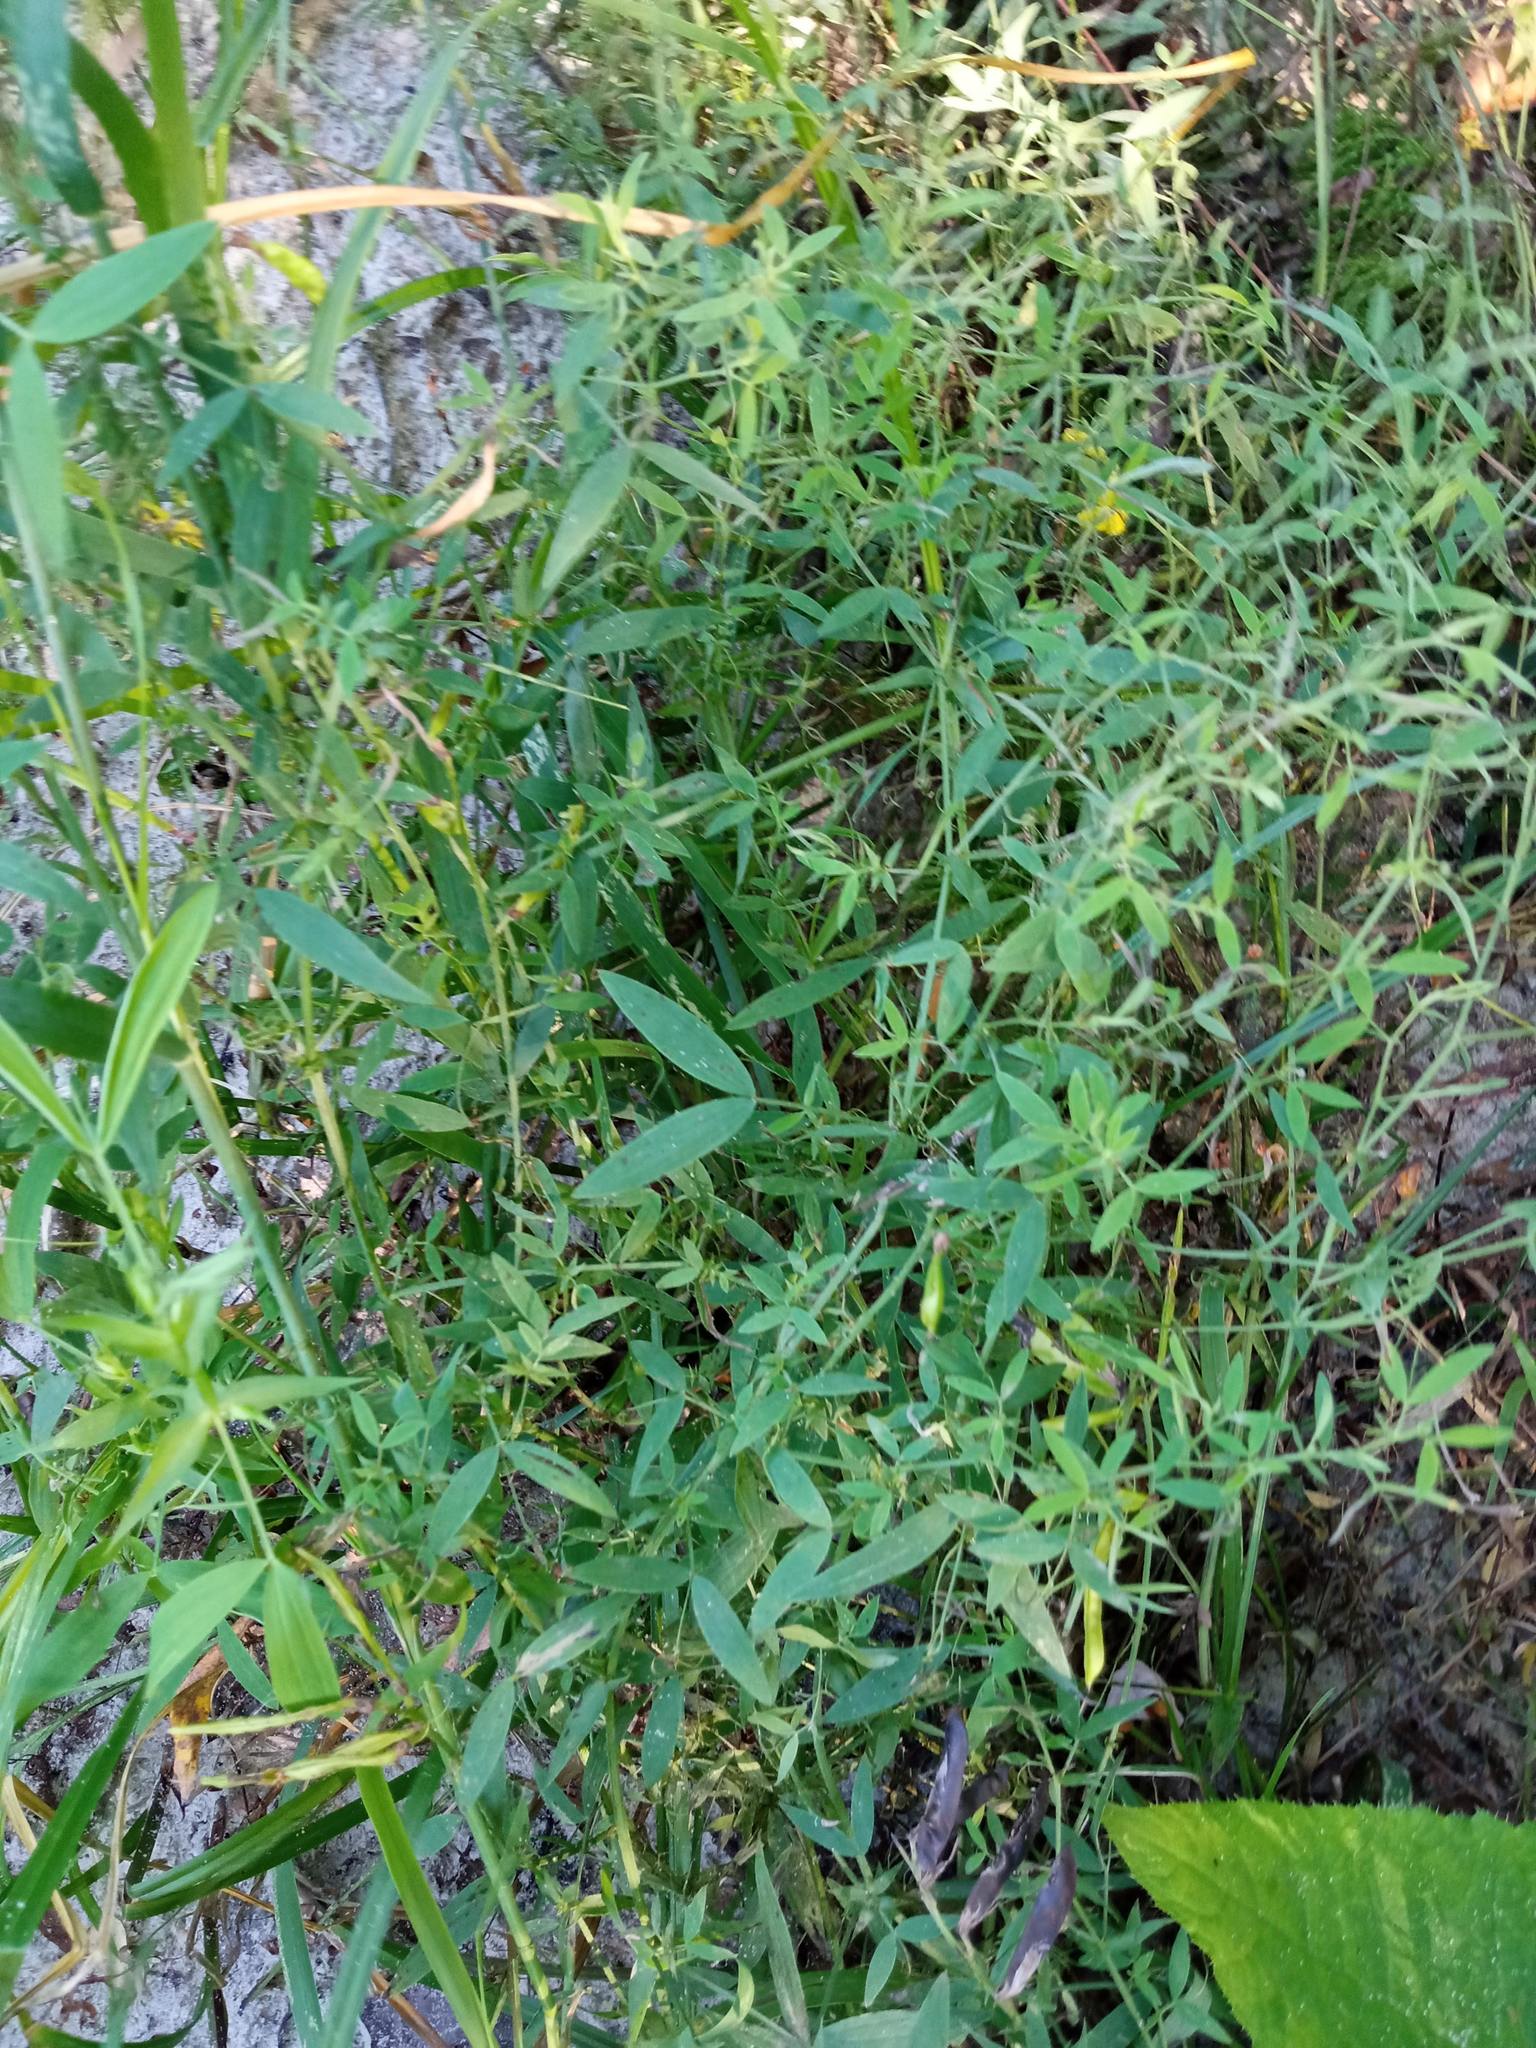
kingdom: Plantae
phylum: Tracheophyta
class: Magnoliopsida
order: Fabales
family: Fabaceae
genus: Lathyrus
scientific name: Lathyrus pratensis
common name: Meadow vetchling
